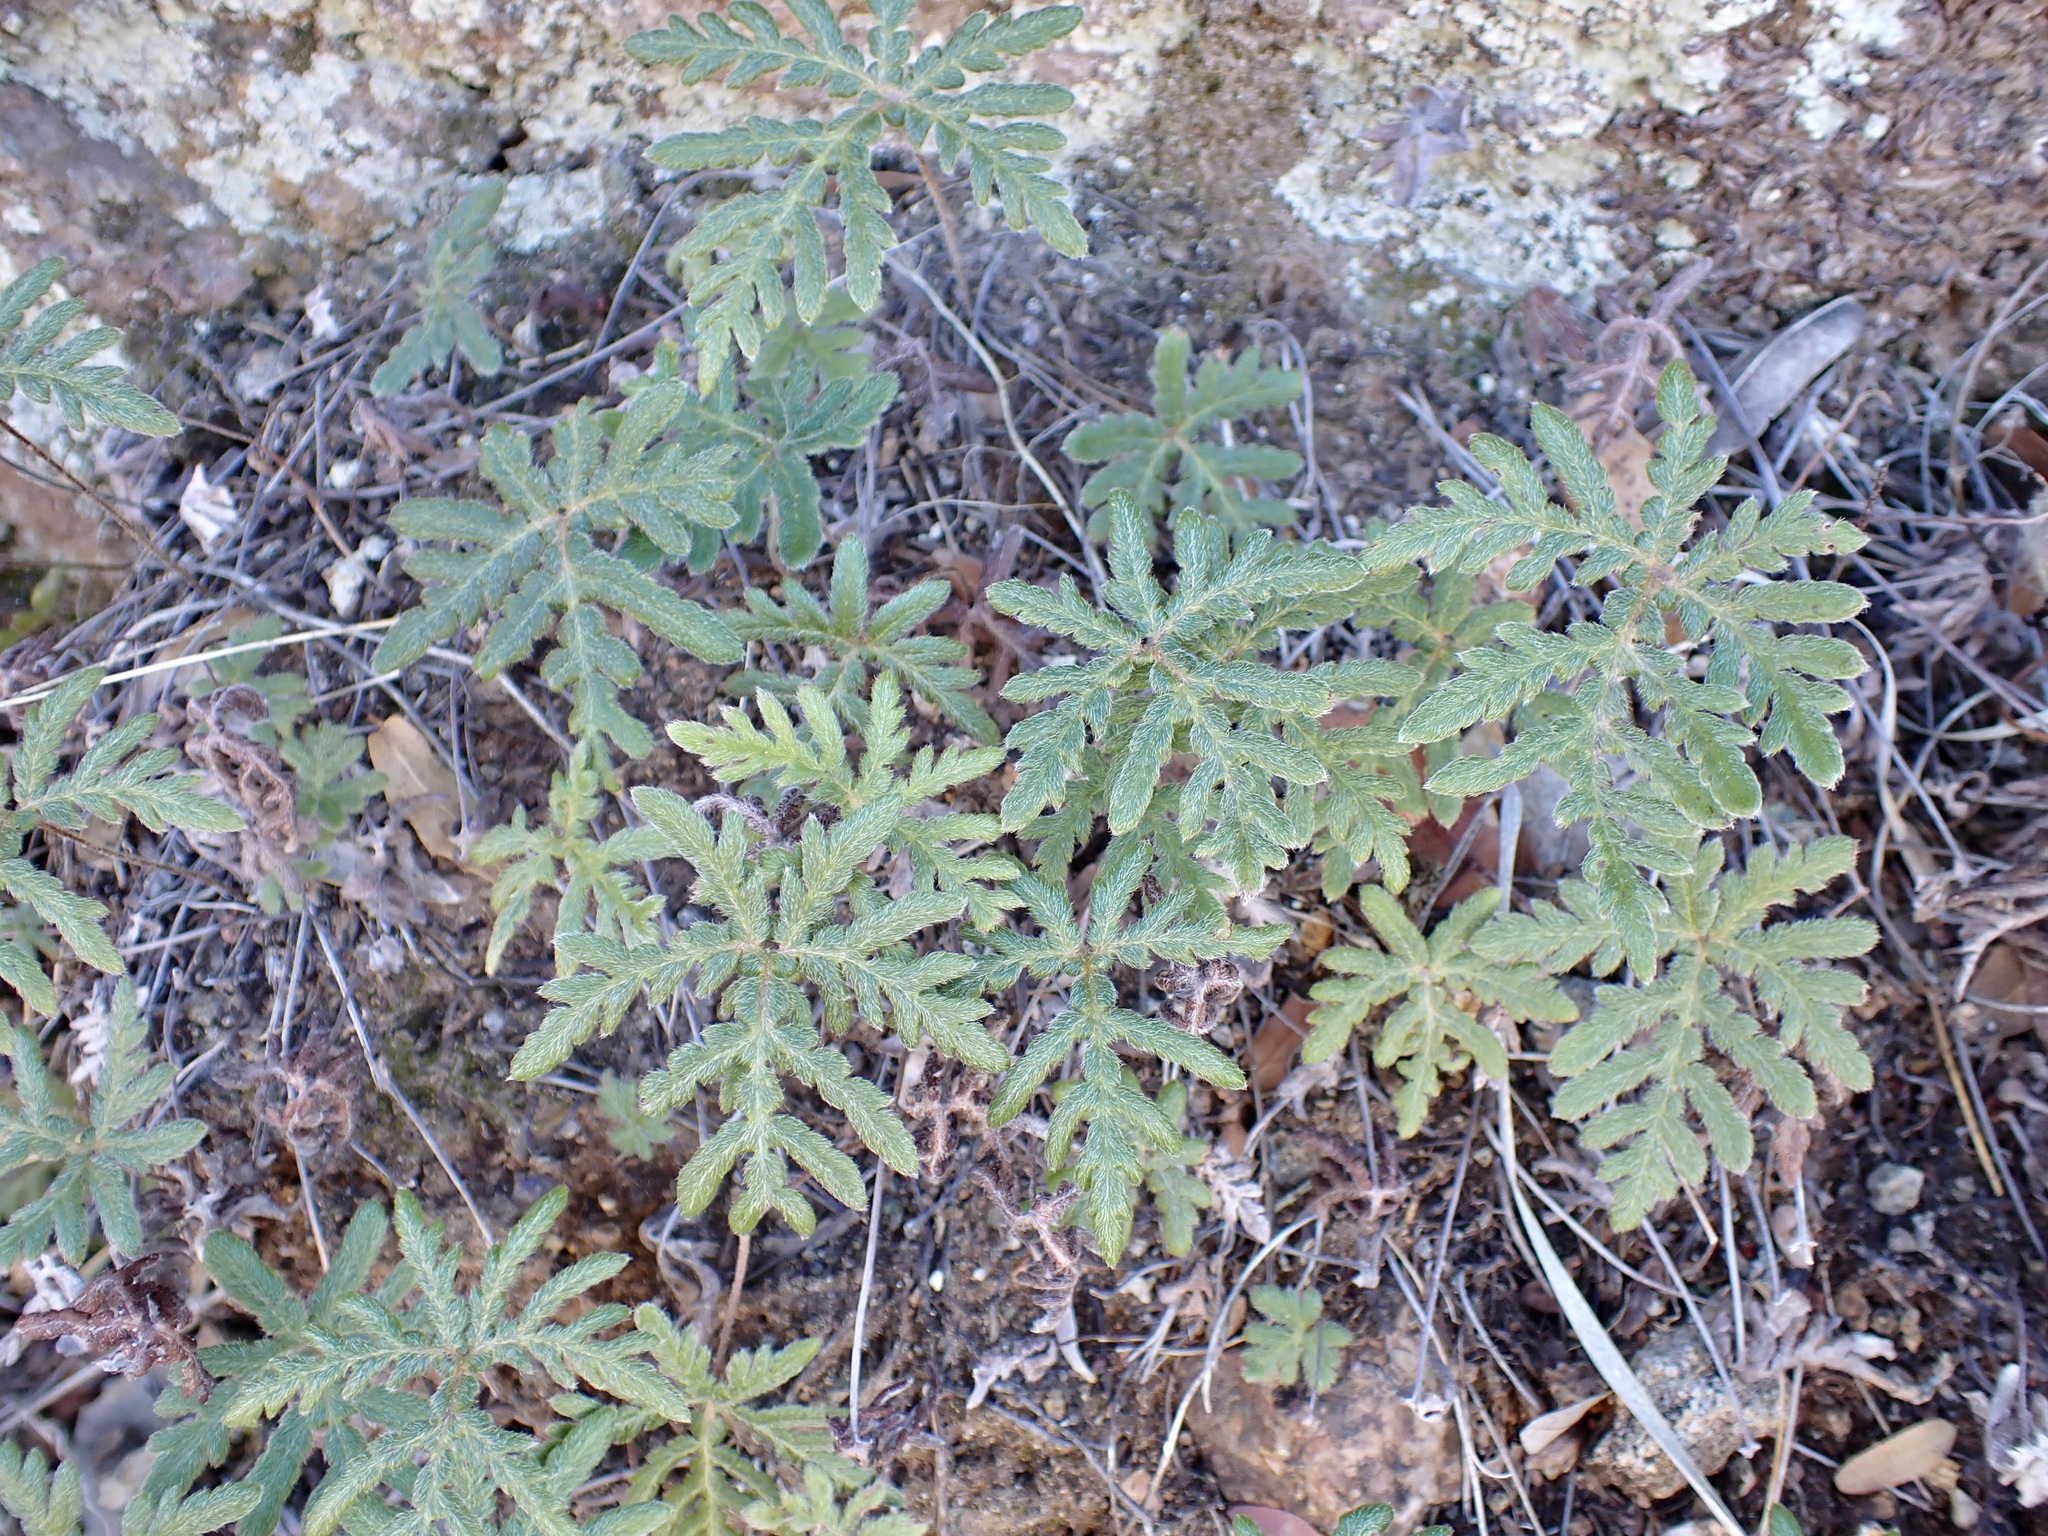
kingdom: Plantae
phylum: Tracheophyta
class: Polypodiopsida
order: Polypodiales
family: Pteridaceae
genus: Bommeria
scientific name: Bommeria hispida
